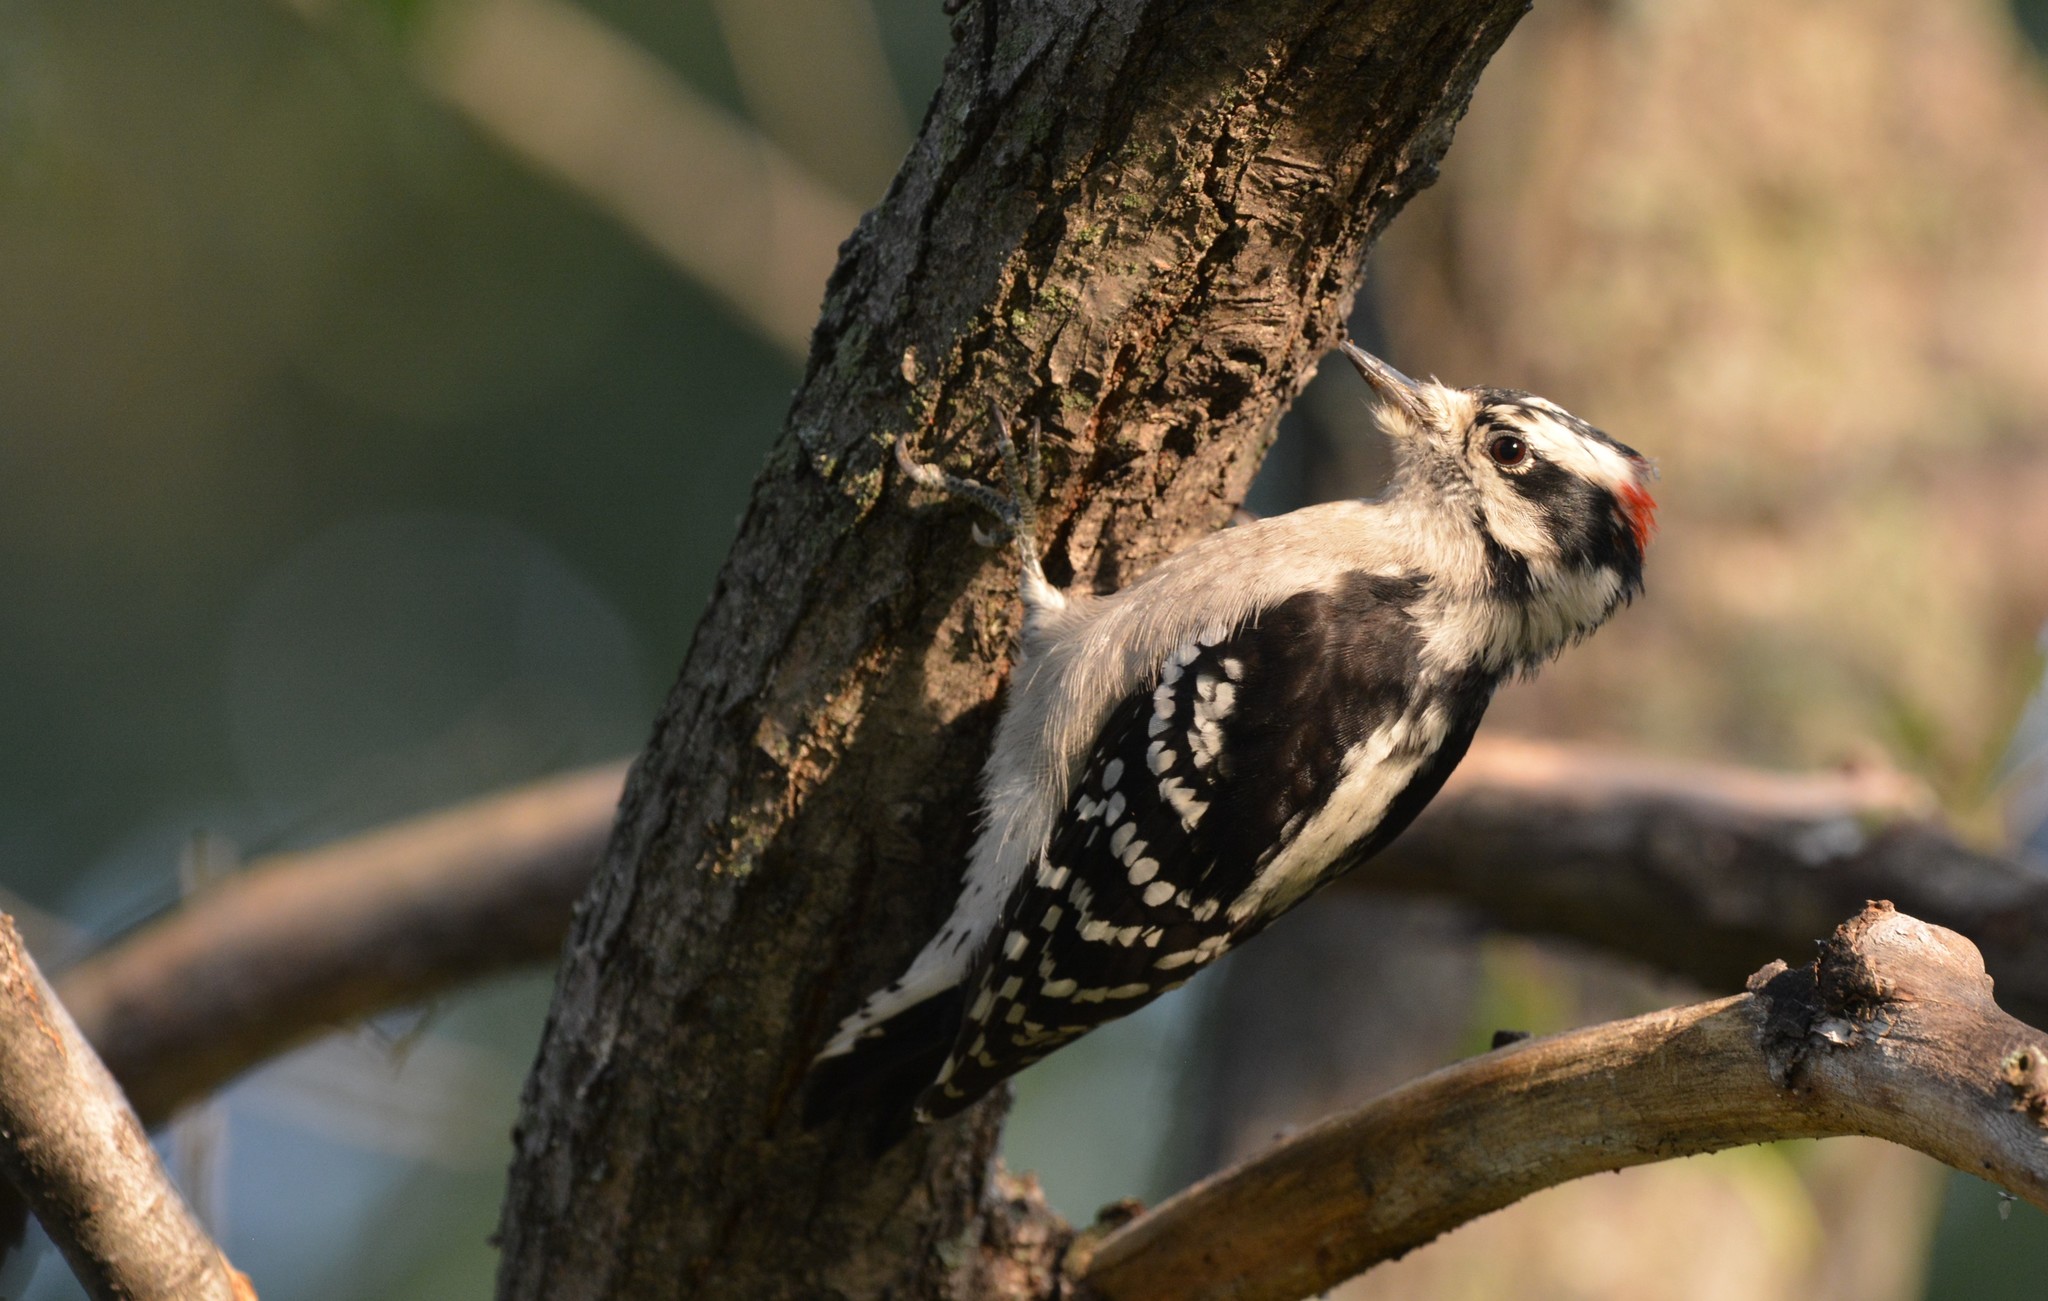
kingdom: Animalia
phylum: Chordata
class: Aves
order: Piciformes
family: Picidae
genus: Dryobates
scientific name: Dryobates pubescens
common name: Downy woodpecker
